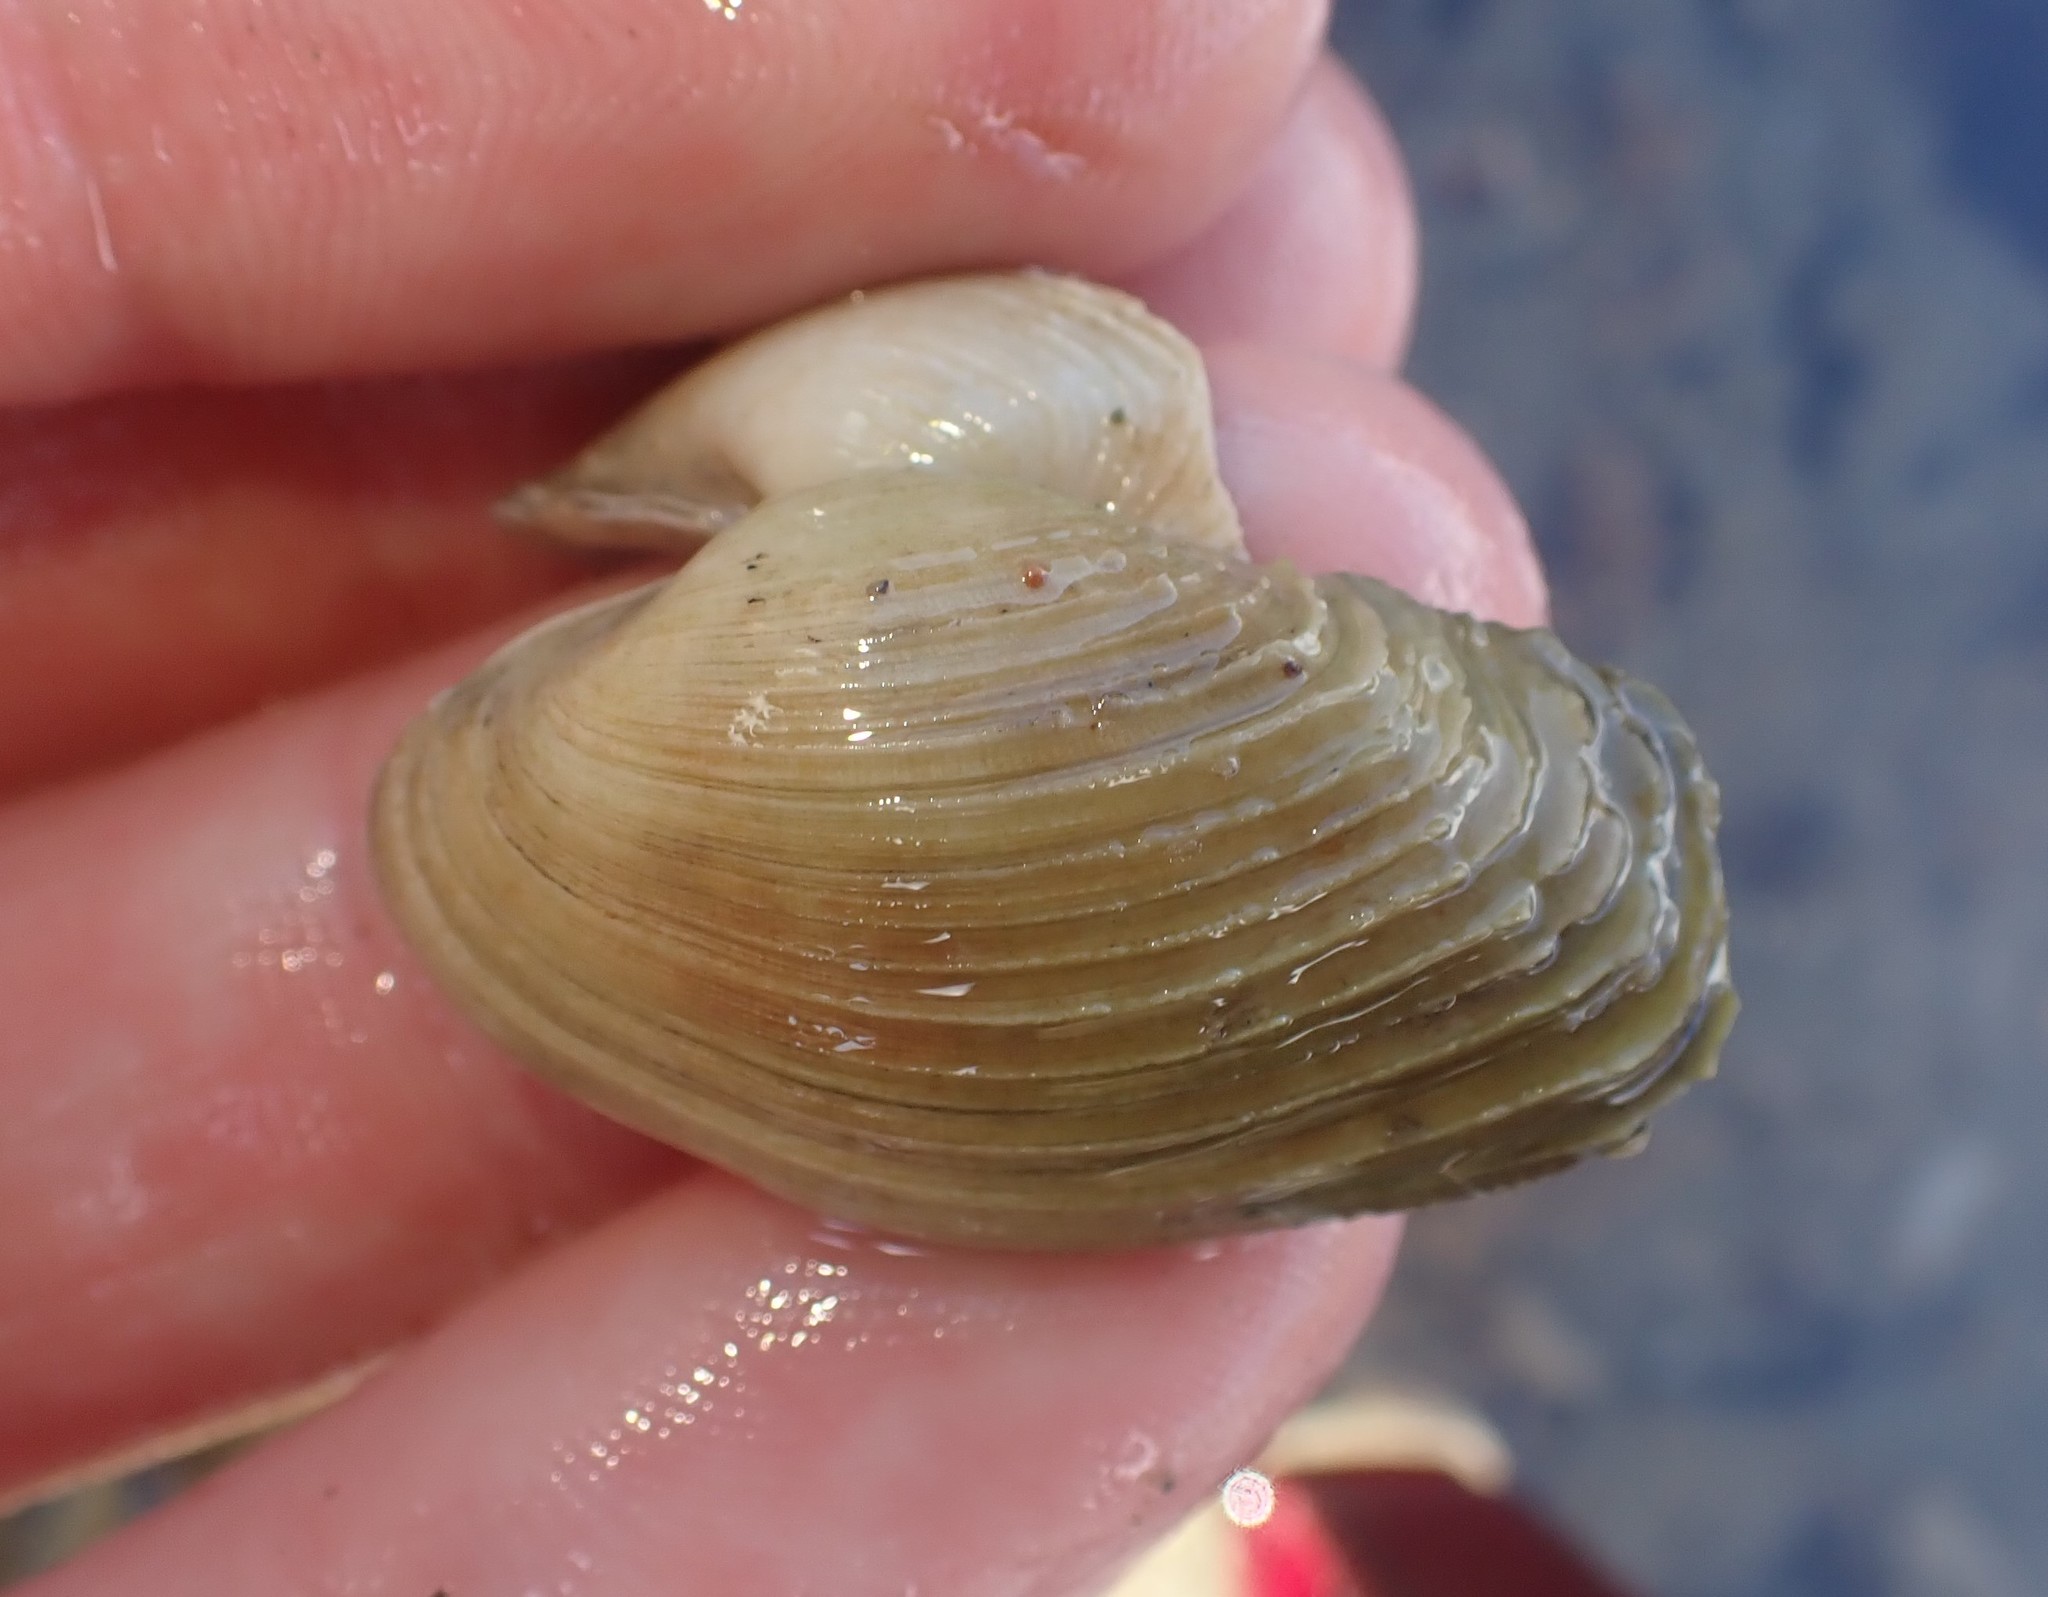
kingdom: Animalia
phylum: Mollusca
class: Bivalvia
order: Venerida
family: Veneridae
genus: Irus
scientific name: Irus elegans
